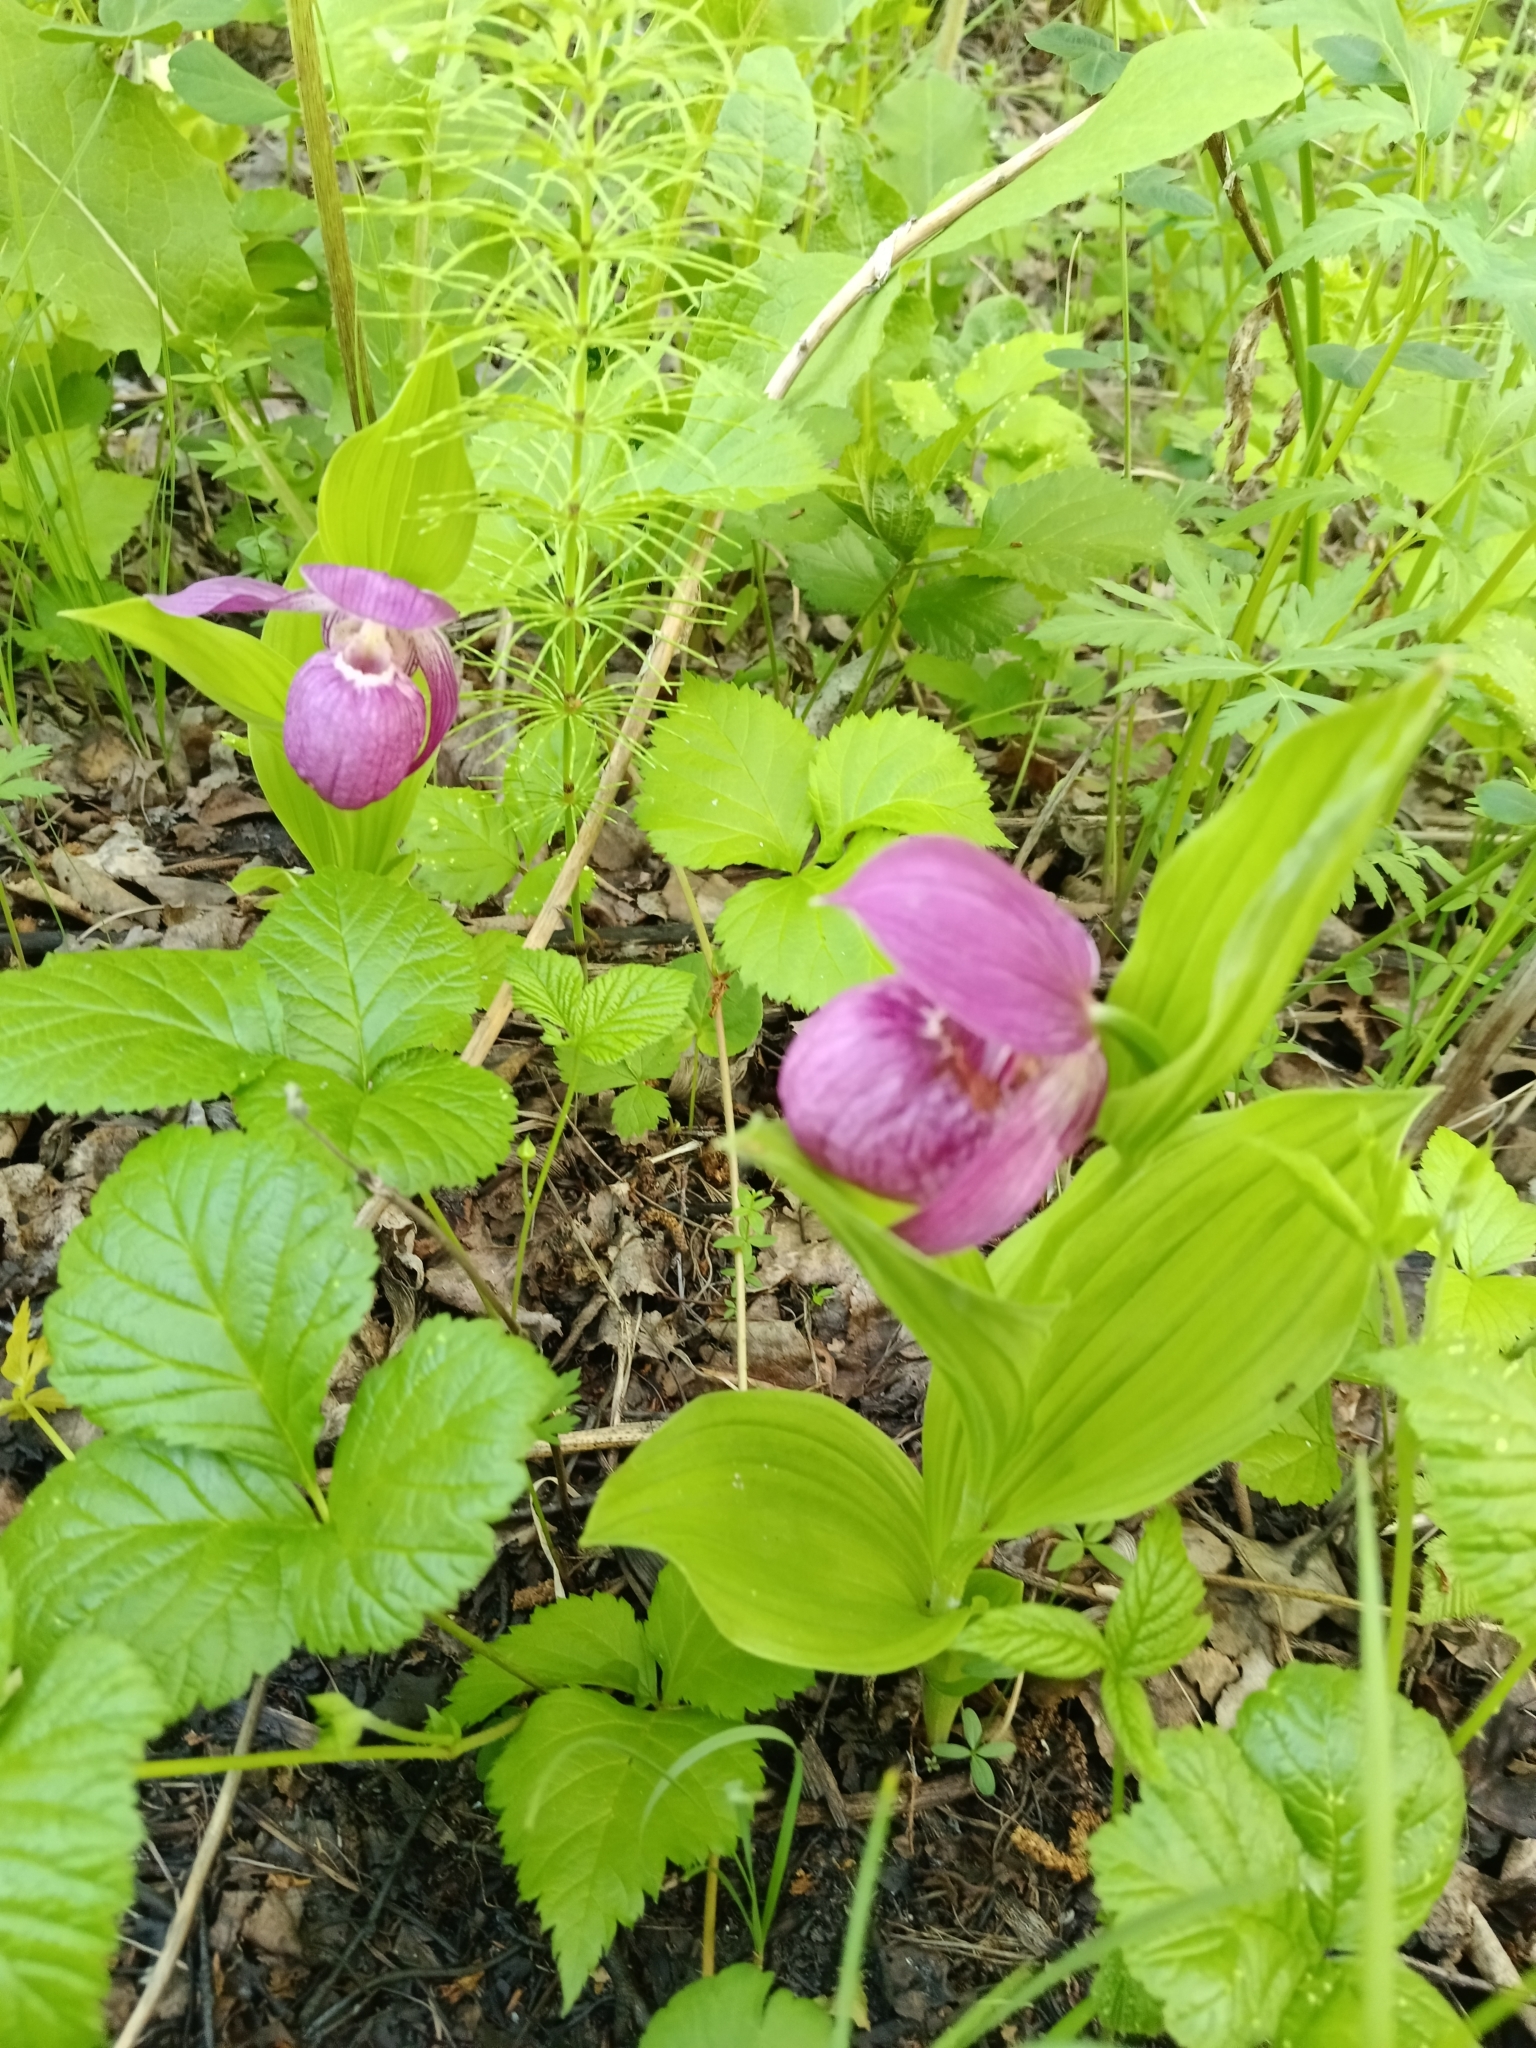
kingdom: Plantae
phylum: Tracheophyta
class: Liliopsida
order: Asparagales
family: Orchidaceae
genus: Cypripedium
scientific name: Cypripedium macranthos
